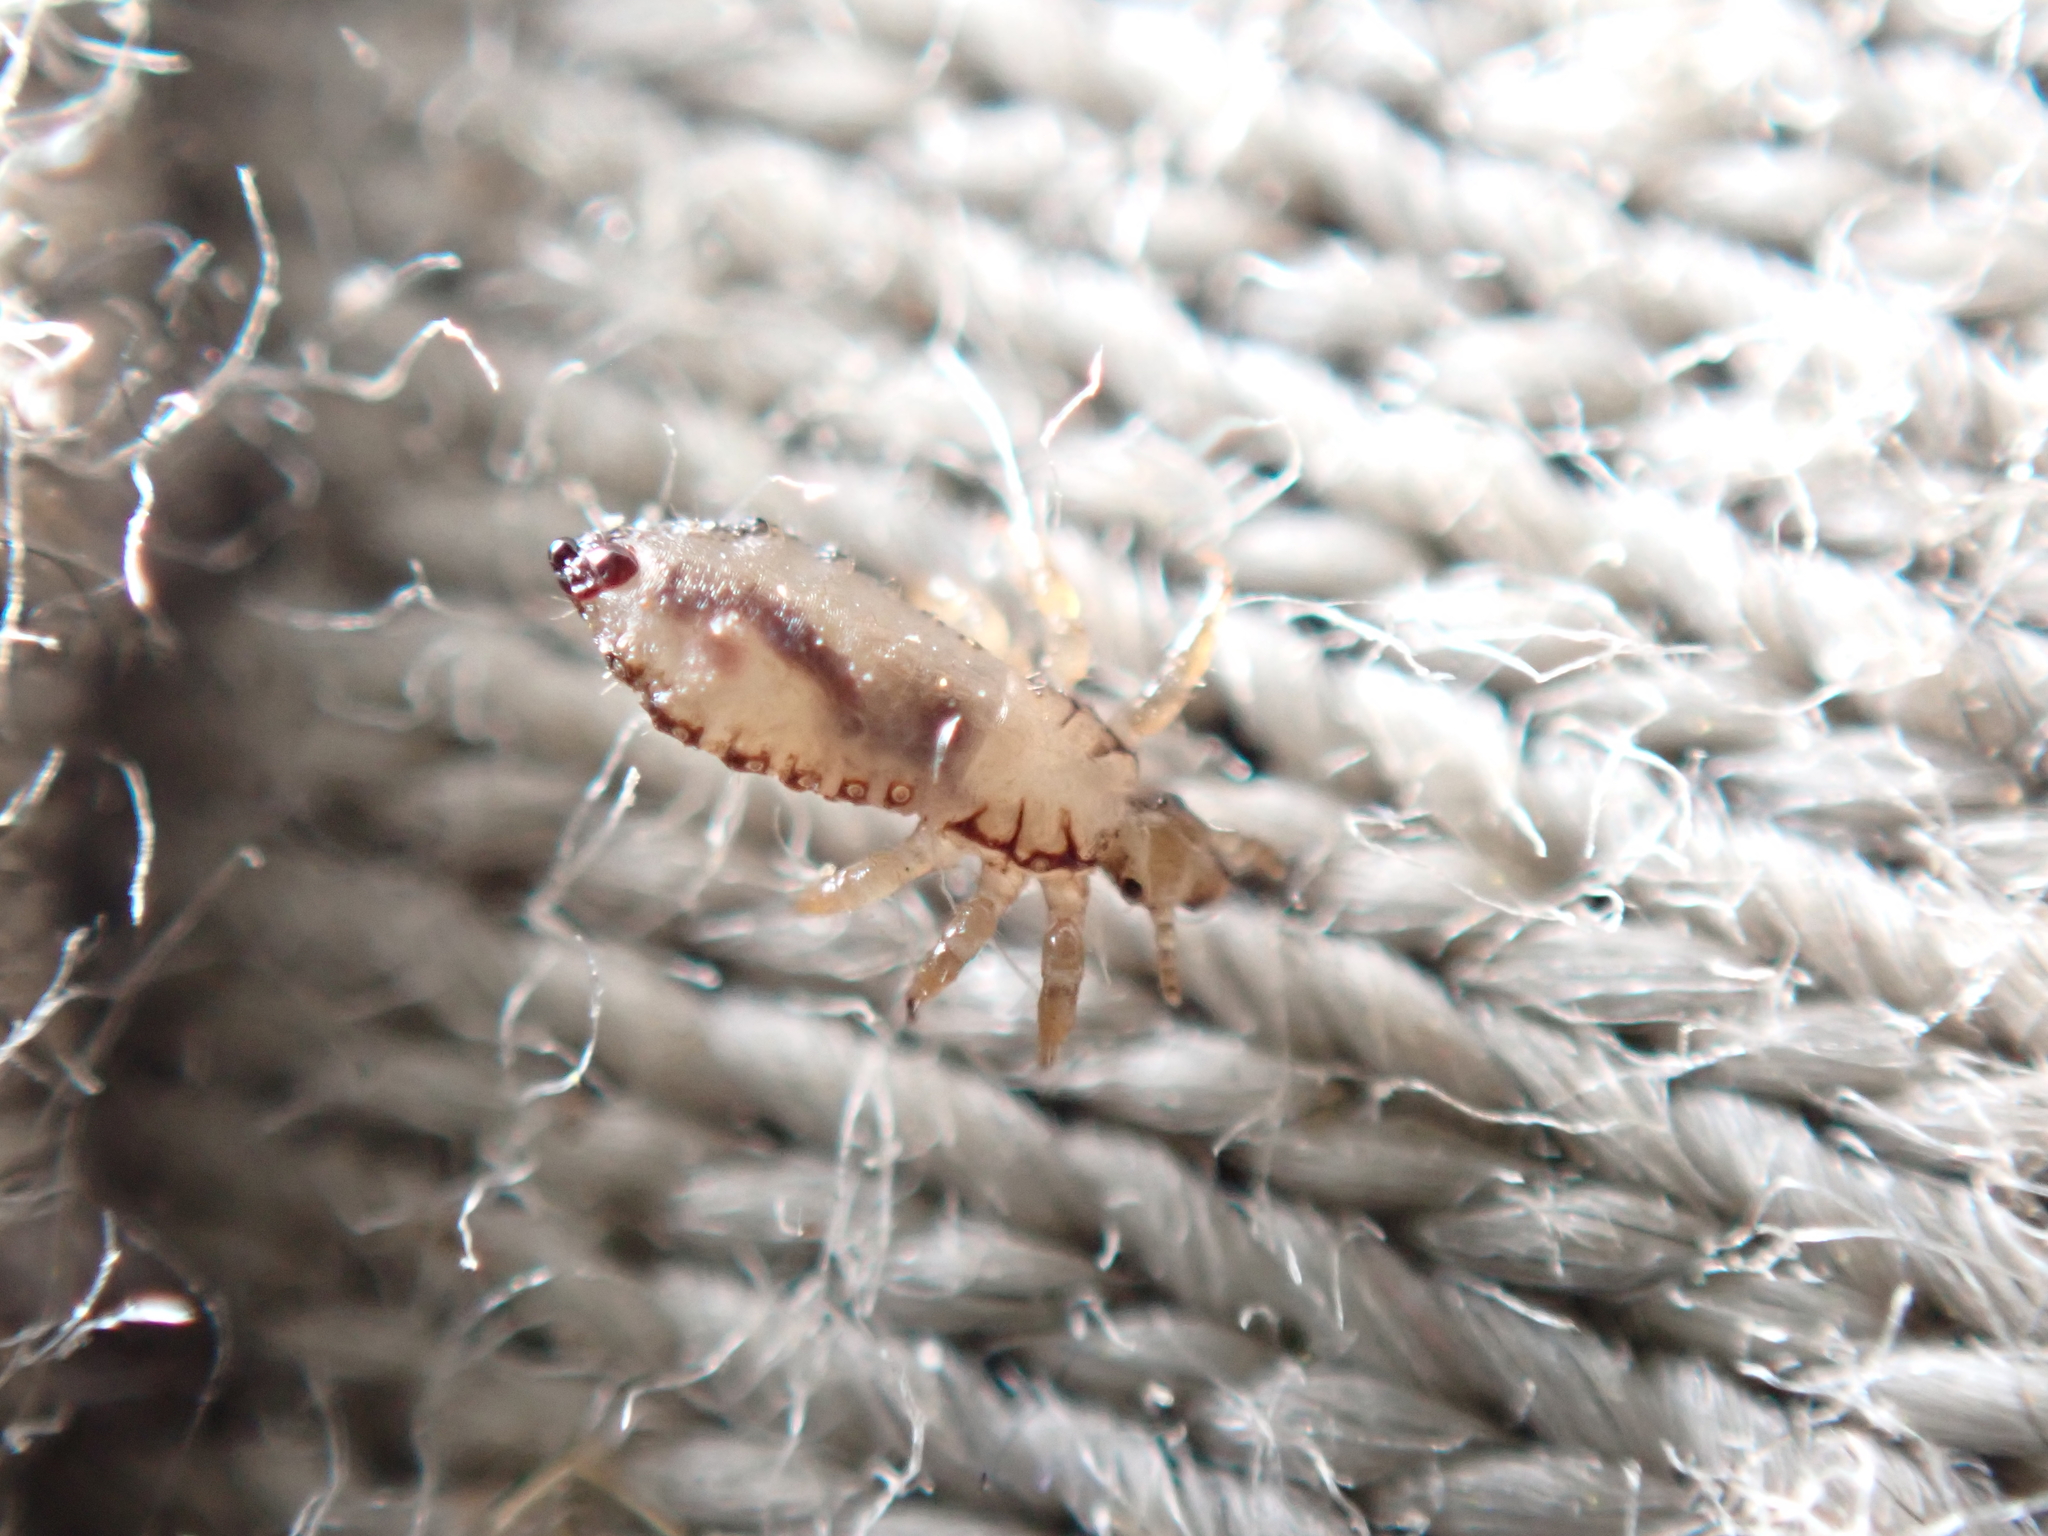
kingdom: Animalia
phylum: Arthropoda
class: Insecta
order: Psocodea
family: Pediculidae
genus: Pediculus
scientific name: Pediculus humanus
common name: Body louse
